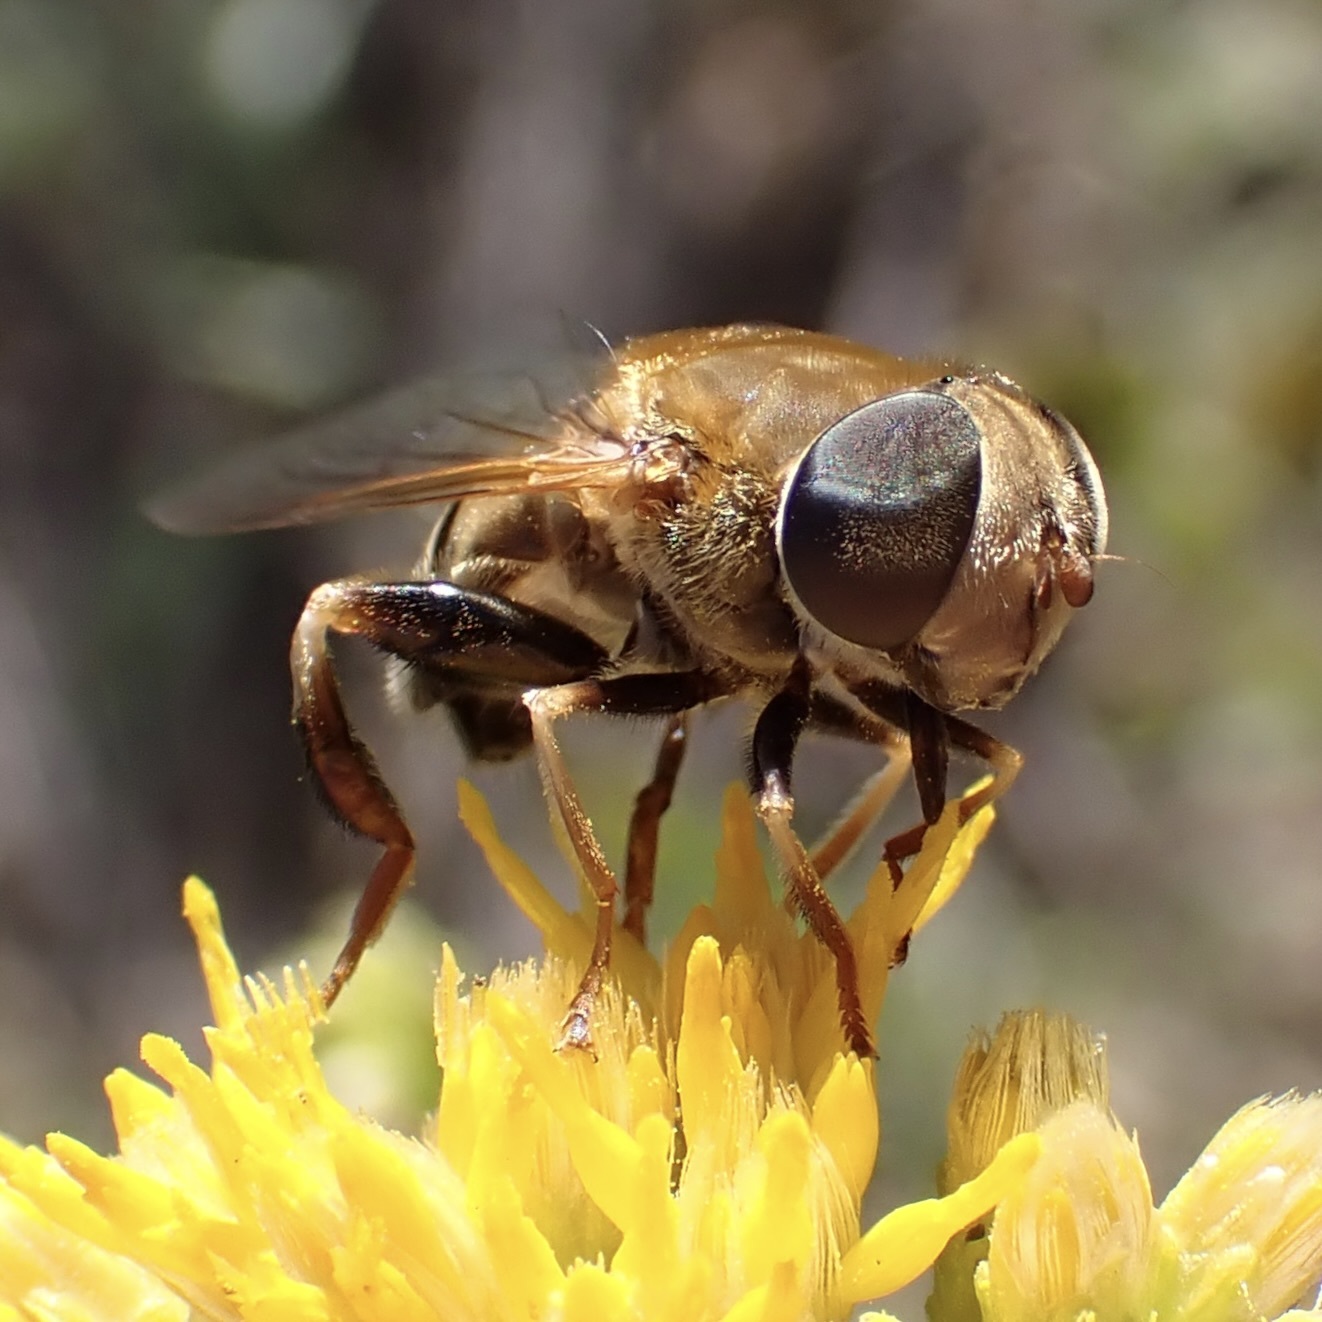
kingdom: Animalia
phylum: Arthropoda
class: Insecta
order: Diptera
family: Syrphidae
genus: Palpada
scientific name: Palpada mexicana
